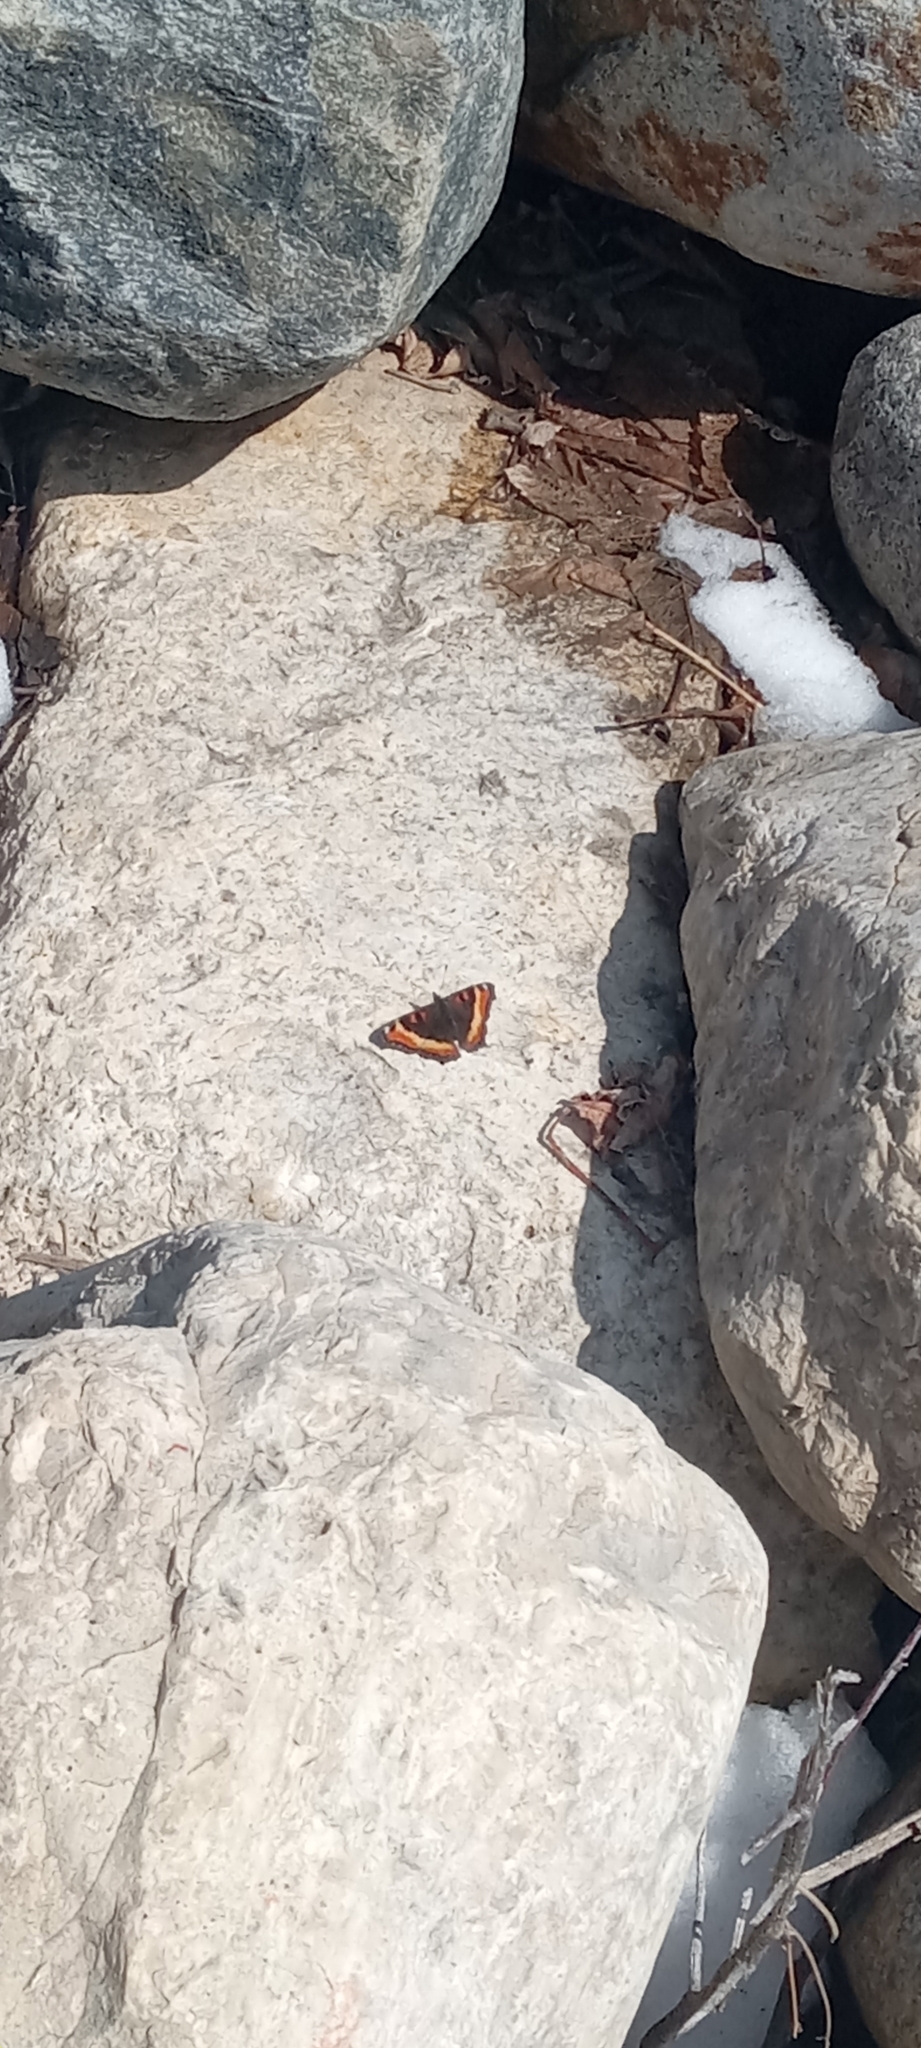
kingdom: Animalia
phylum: Arthropoda
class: Insecta
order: Lepidoptera
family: Nymphalidae
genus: Aglais
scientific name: Aglais milberti
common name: Milbert's tortoiseshell
